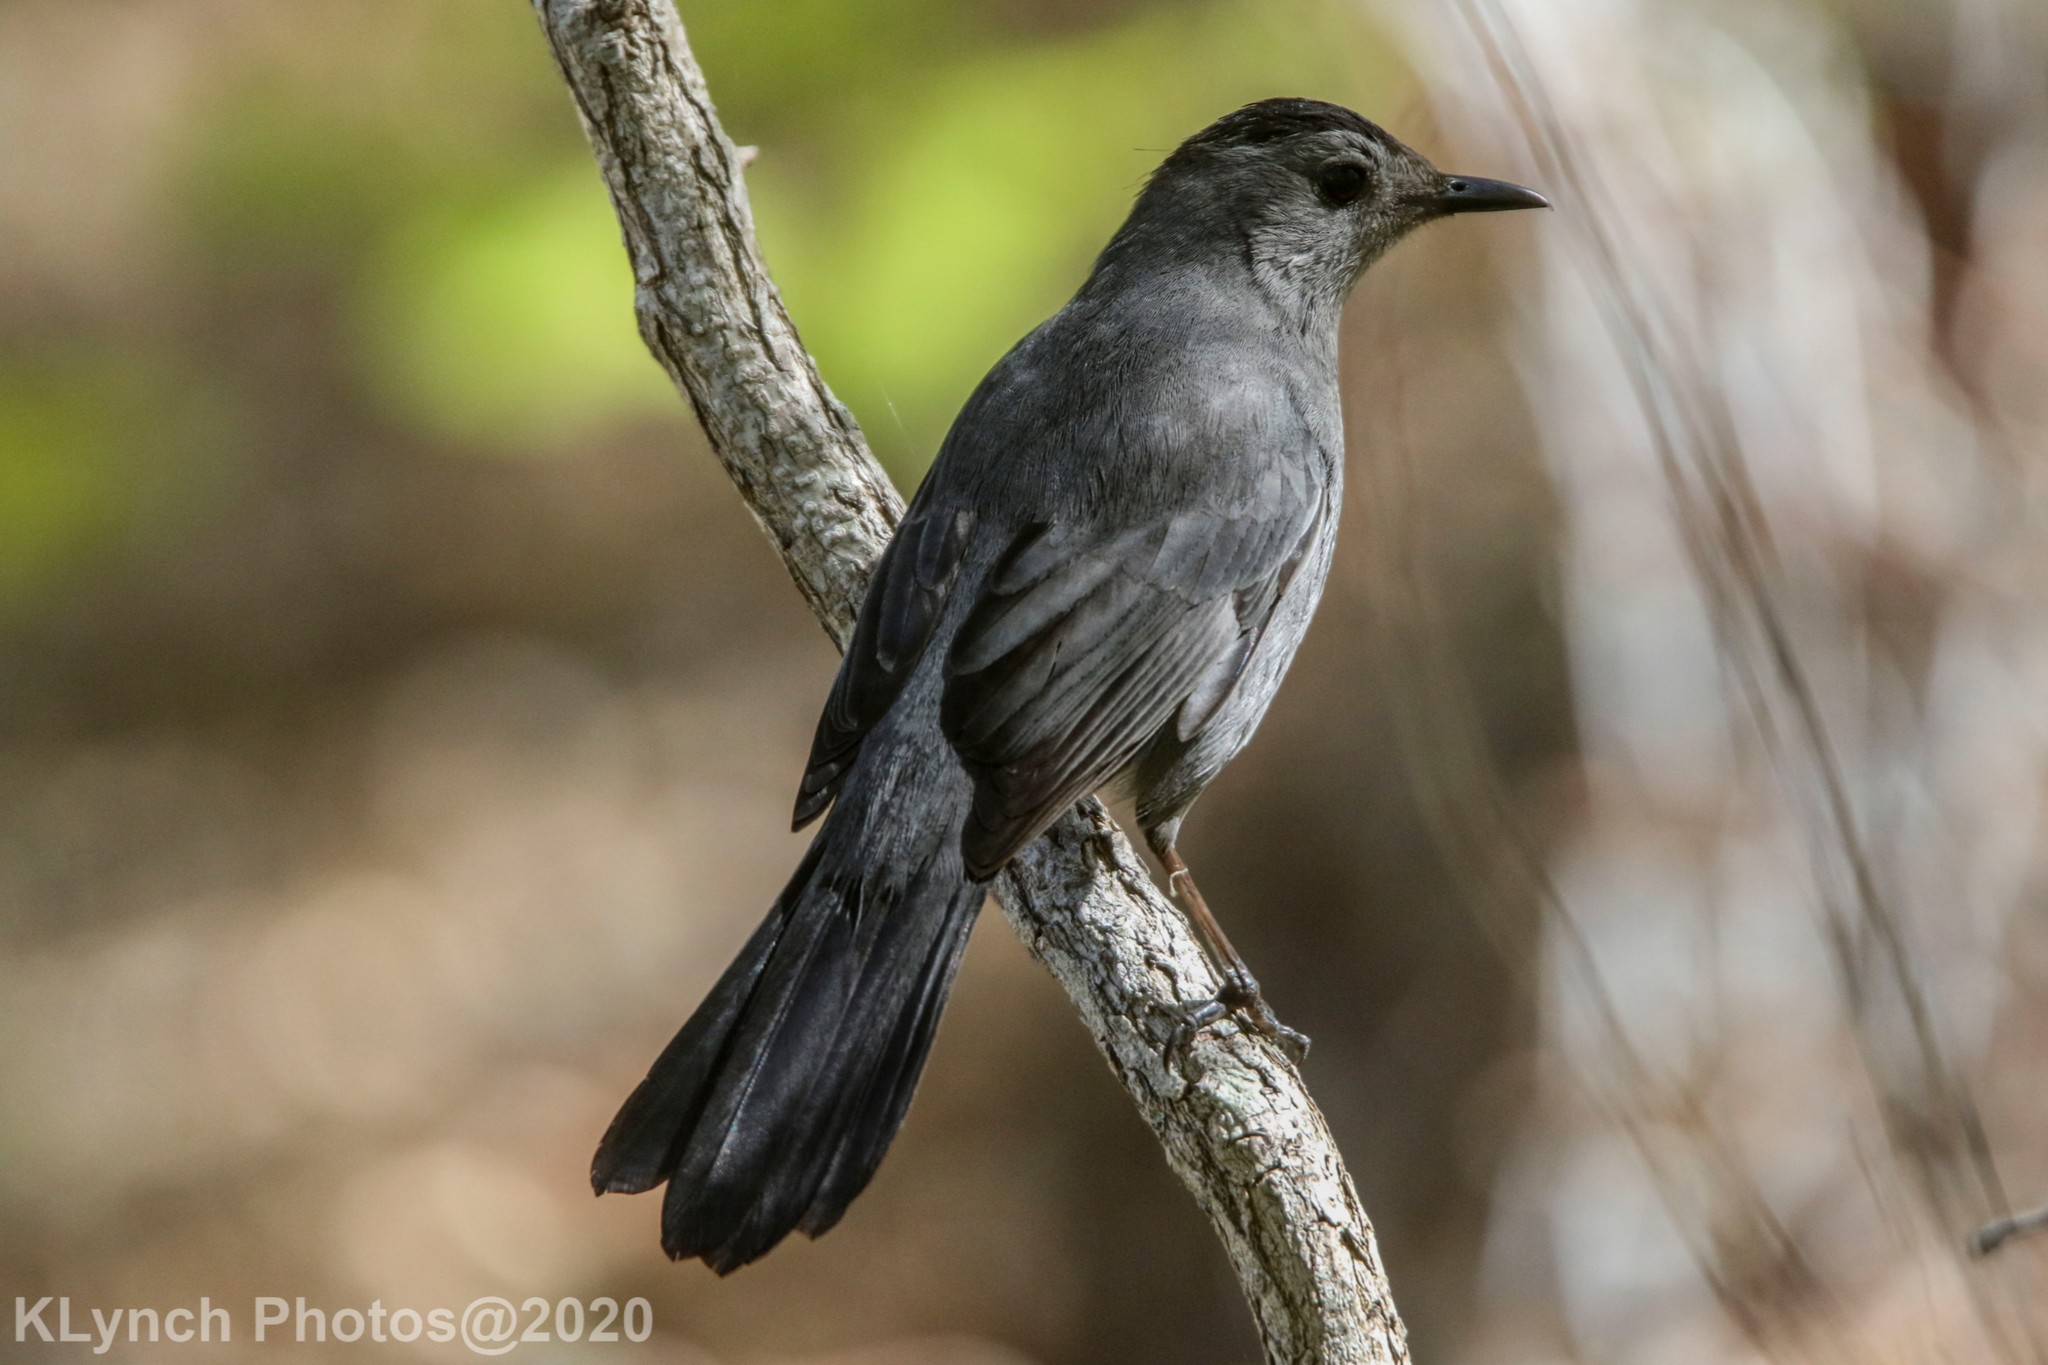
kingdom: Animalia
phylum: Chordata
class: Aves
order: Passeriformes
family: Mimidae
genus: Dumetella
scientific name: Dumetella carolinensis
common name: Gray catbird
